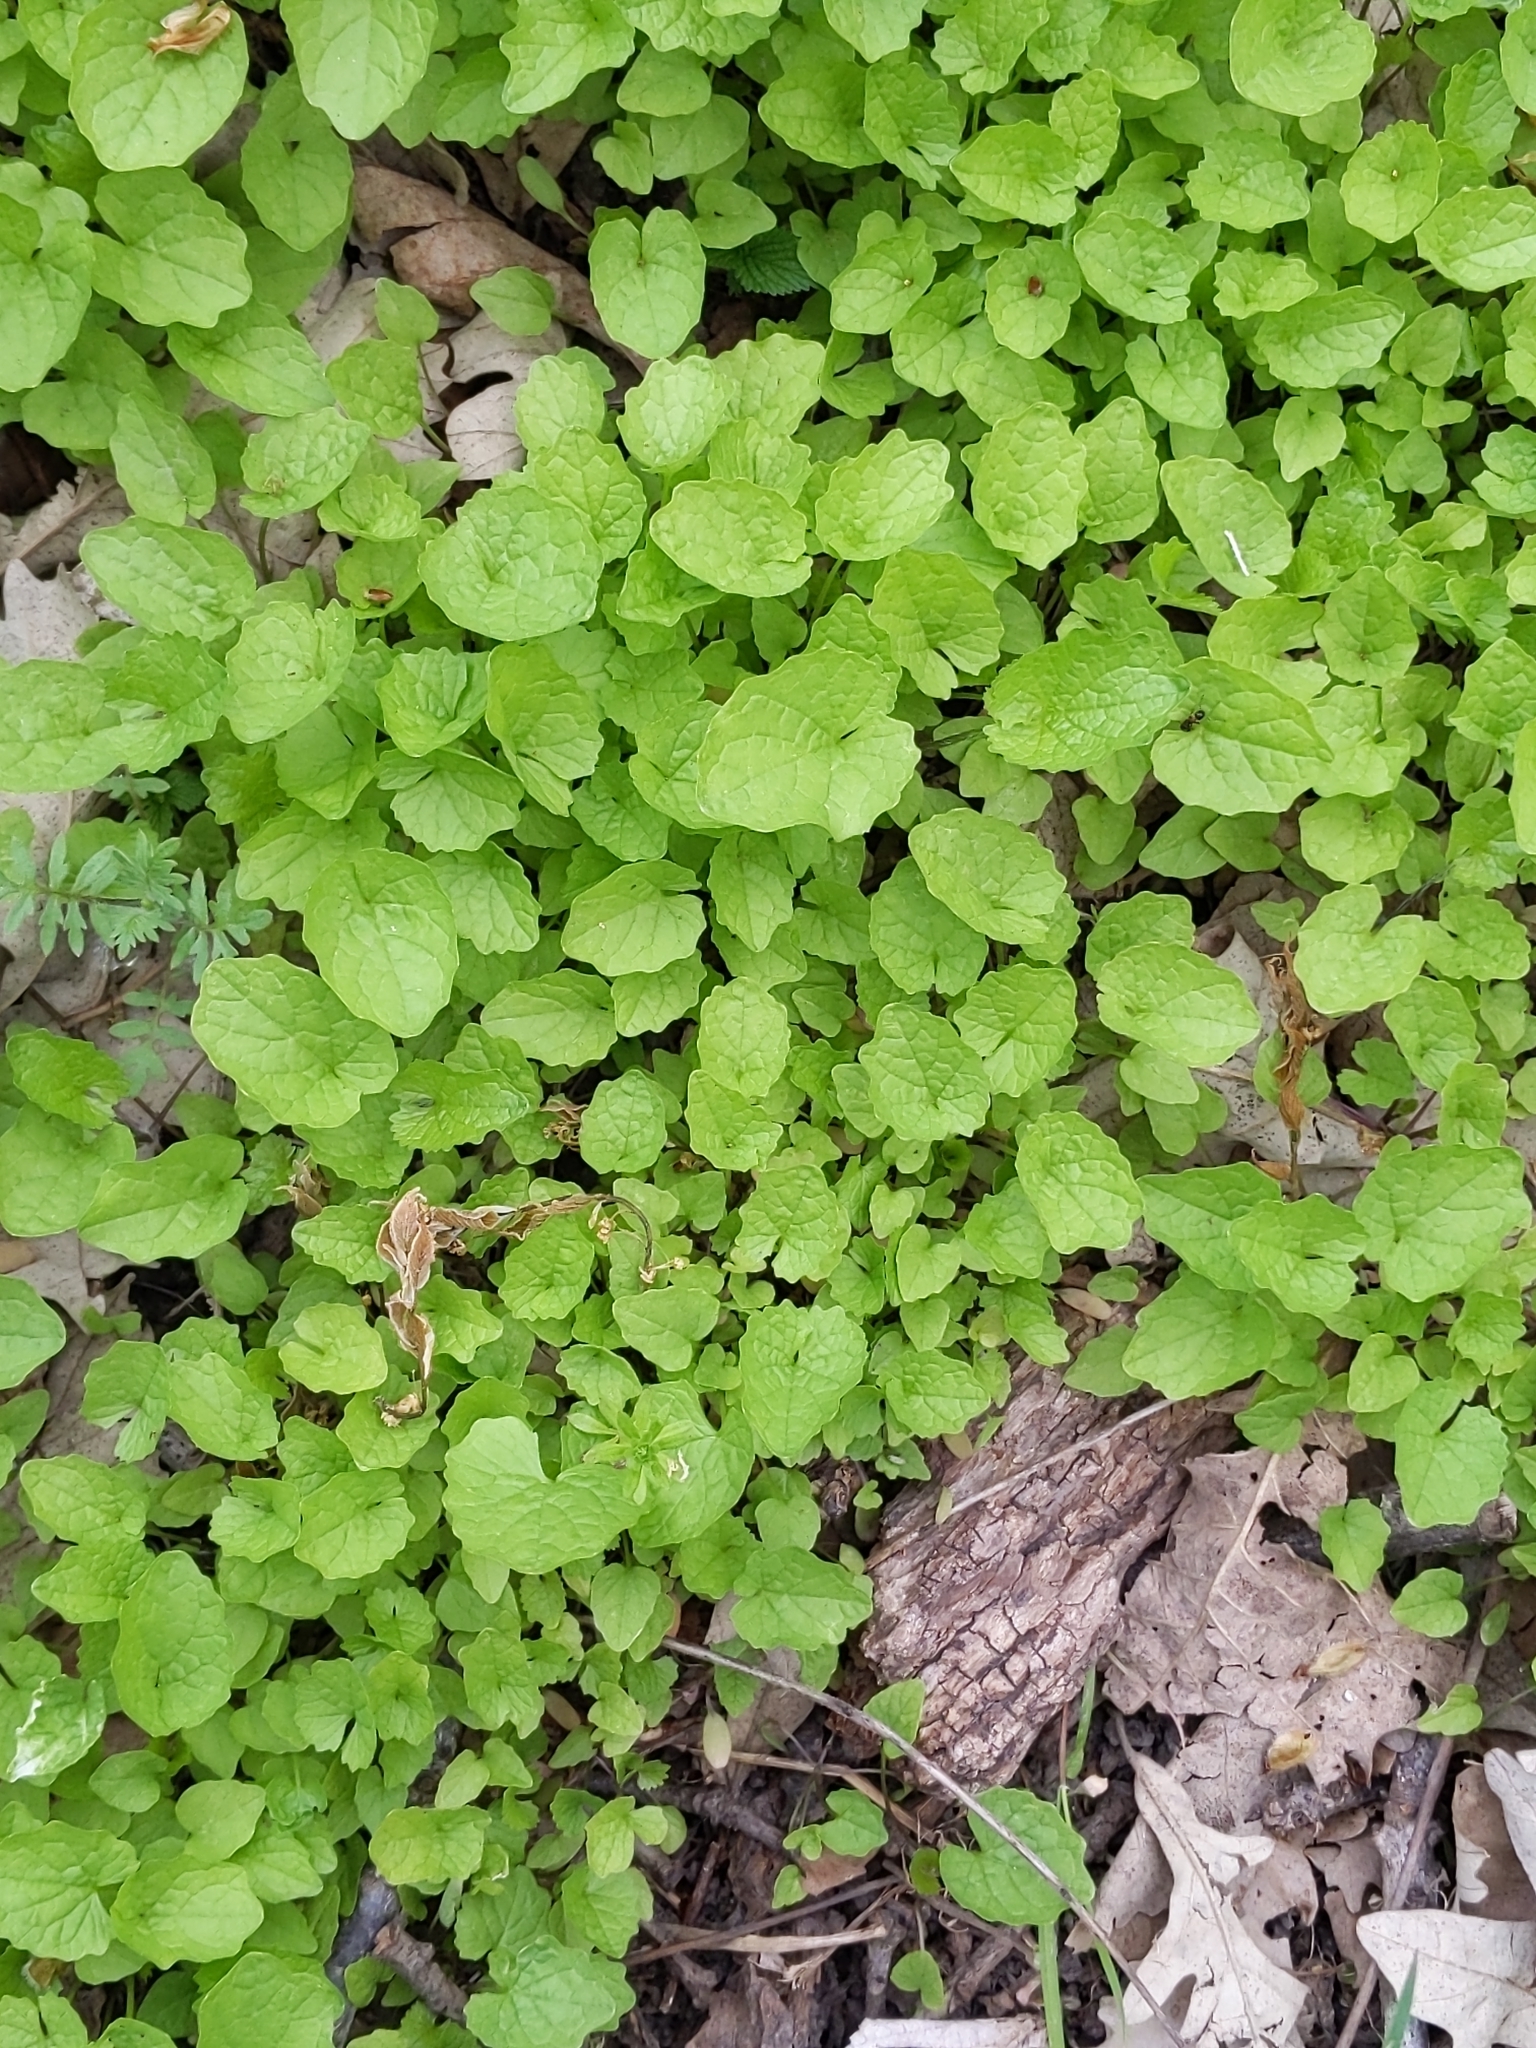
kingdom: Plantae
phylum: Tracheophyta
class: Magnoliopsida
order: Brassicales
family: Brassicaceae
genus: Alliaria
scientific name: Alliaria petiolata
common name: Garlic mustard
